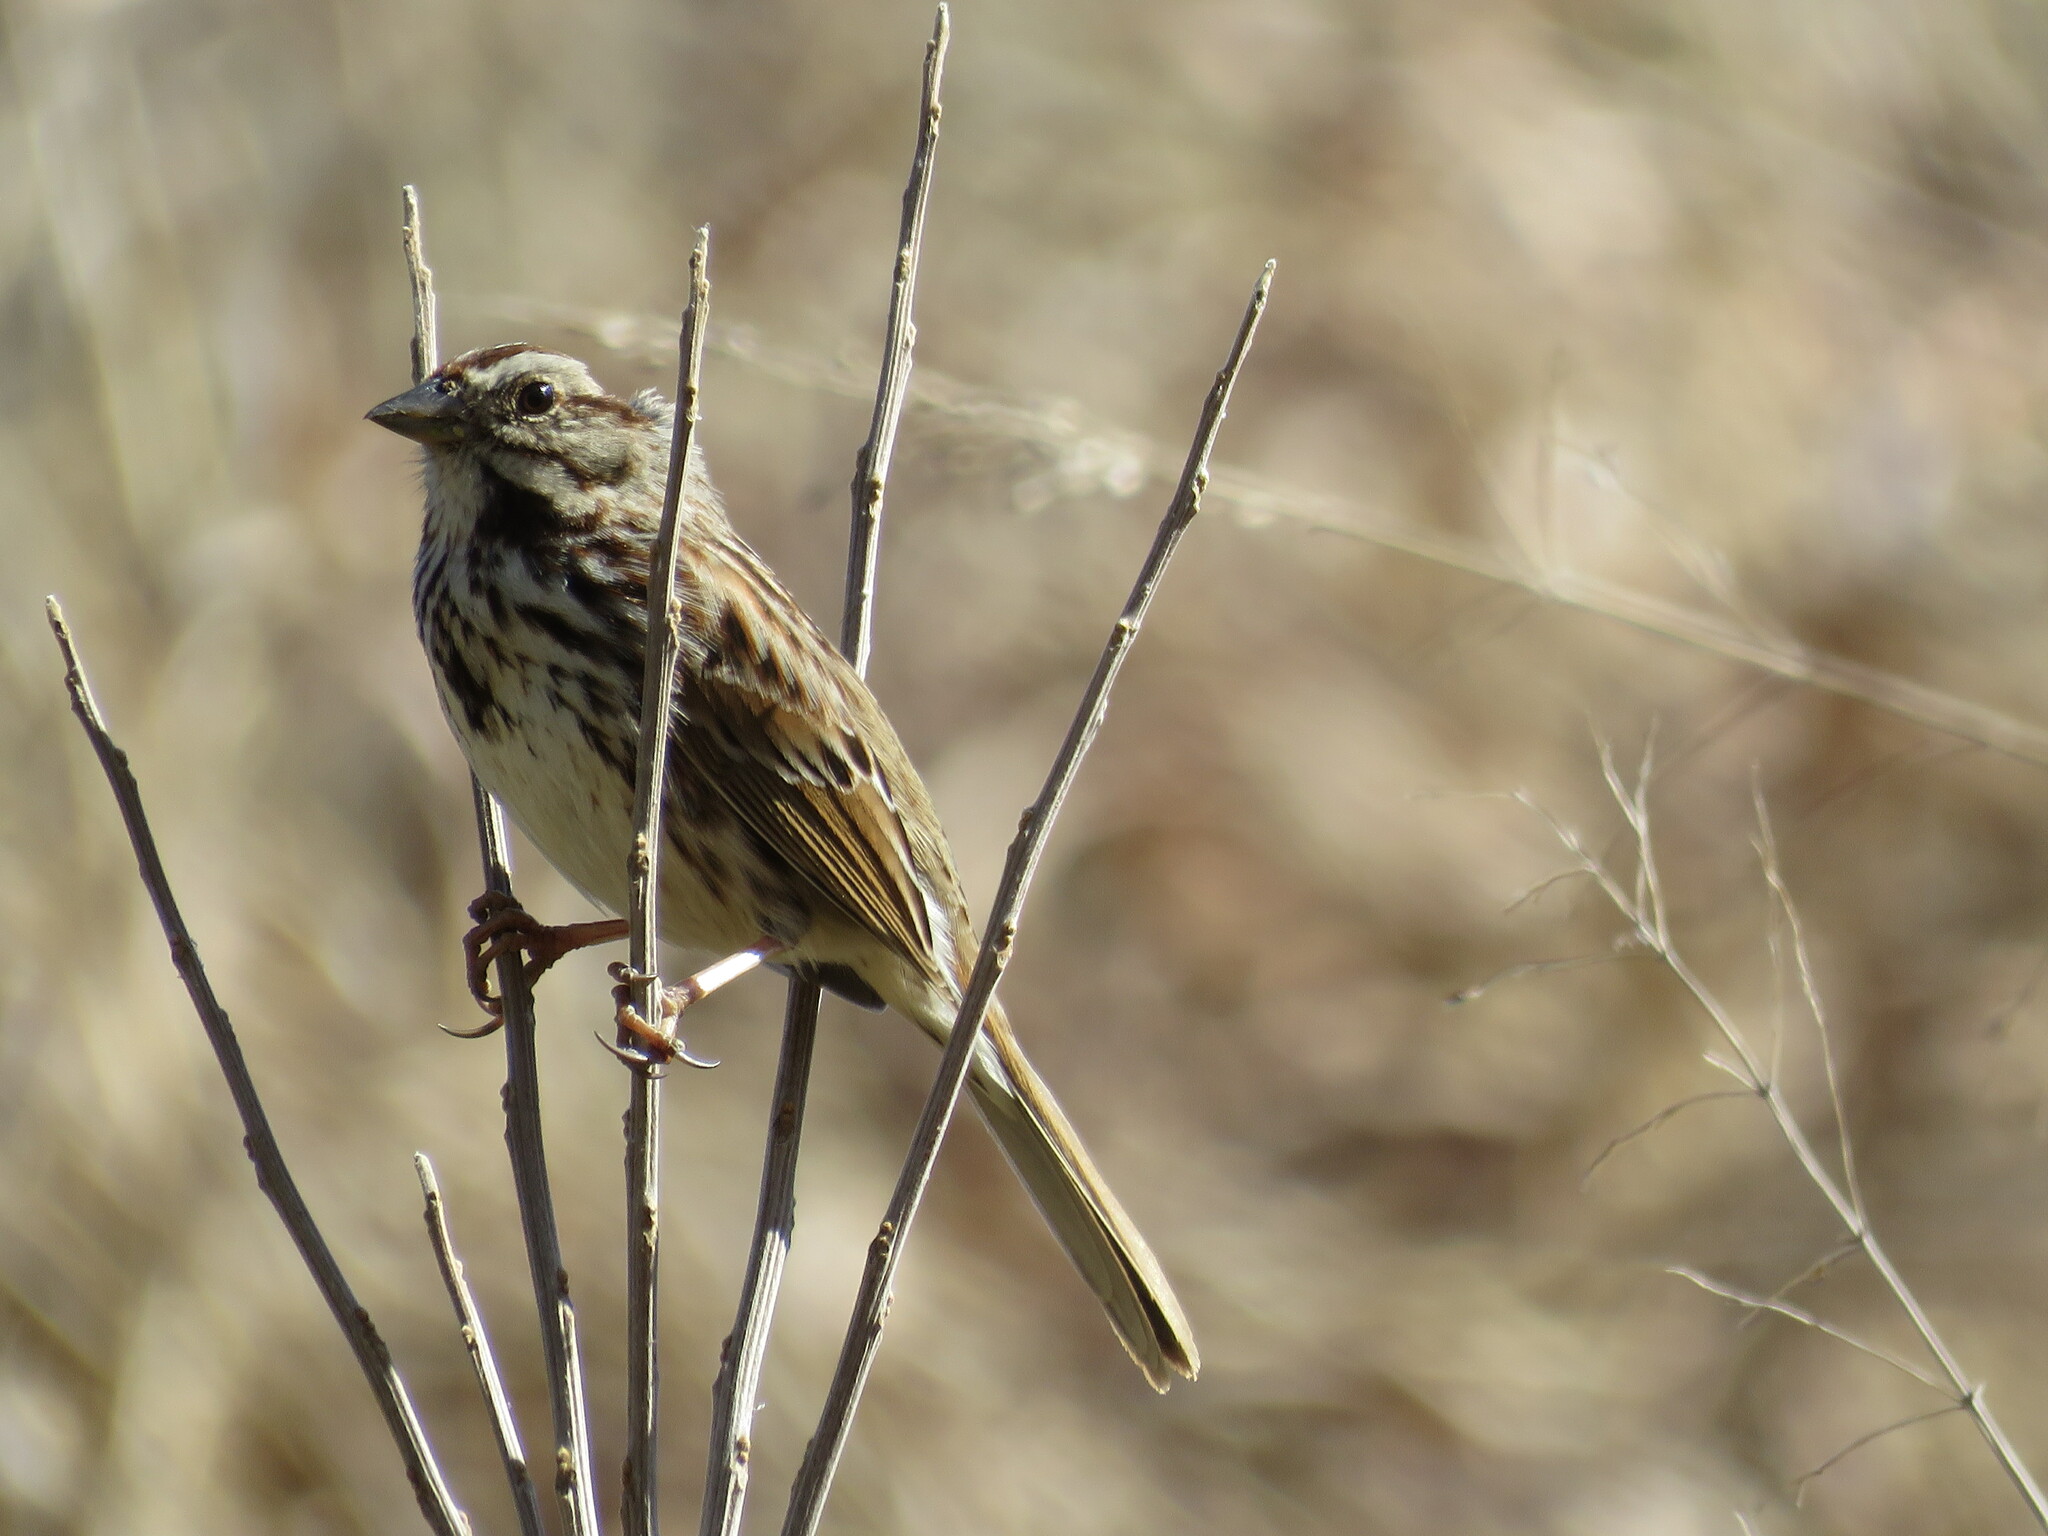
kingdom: Animalia
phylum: Chordata
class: Aves
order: Passeriformes
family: Passerellidae
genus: Melospiza
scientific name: Melospiza melodia
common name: Song sparrow
